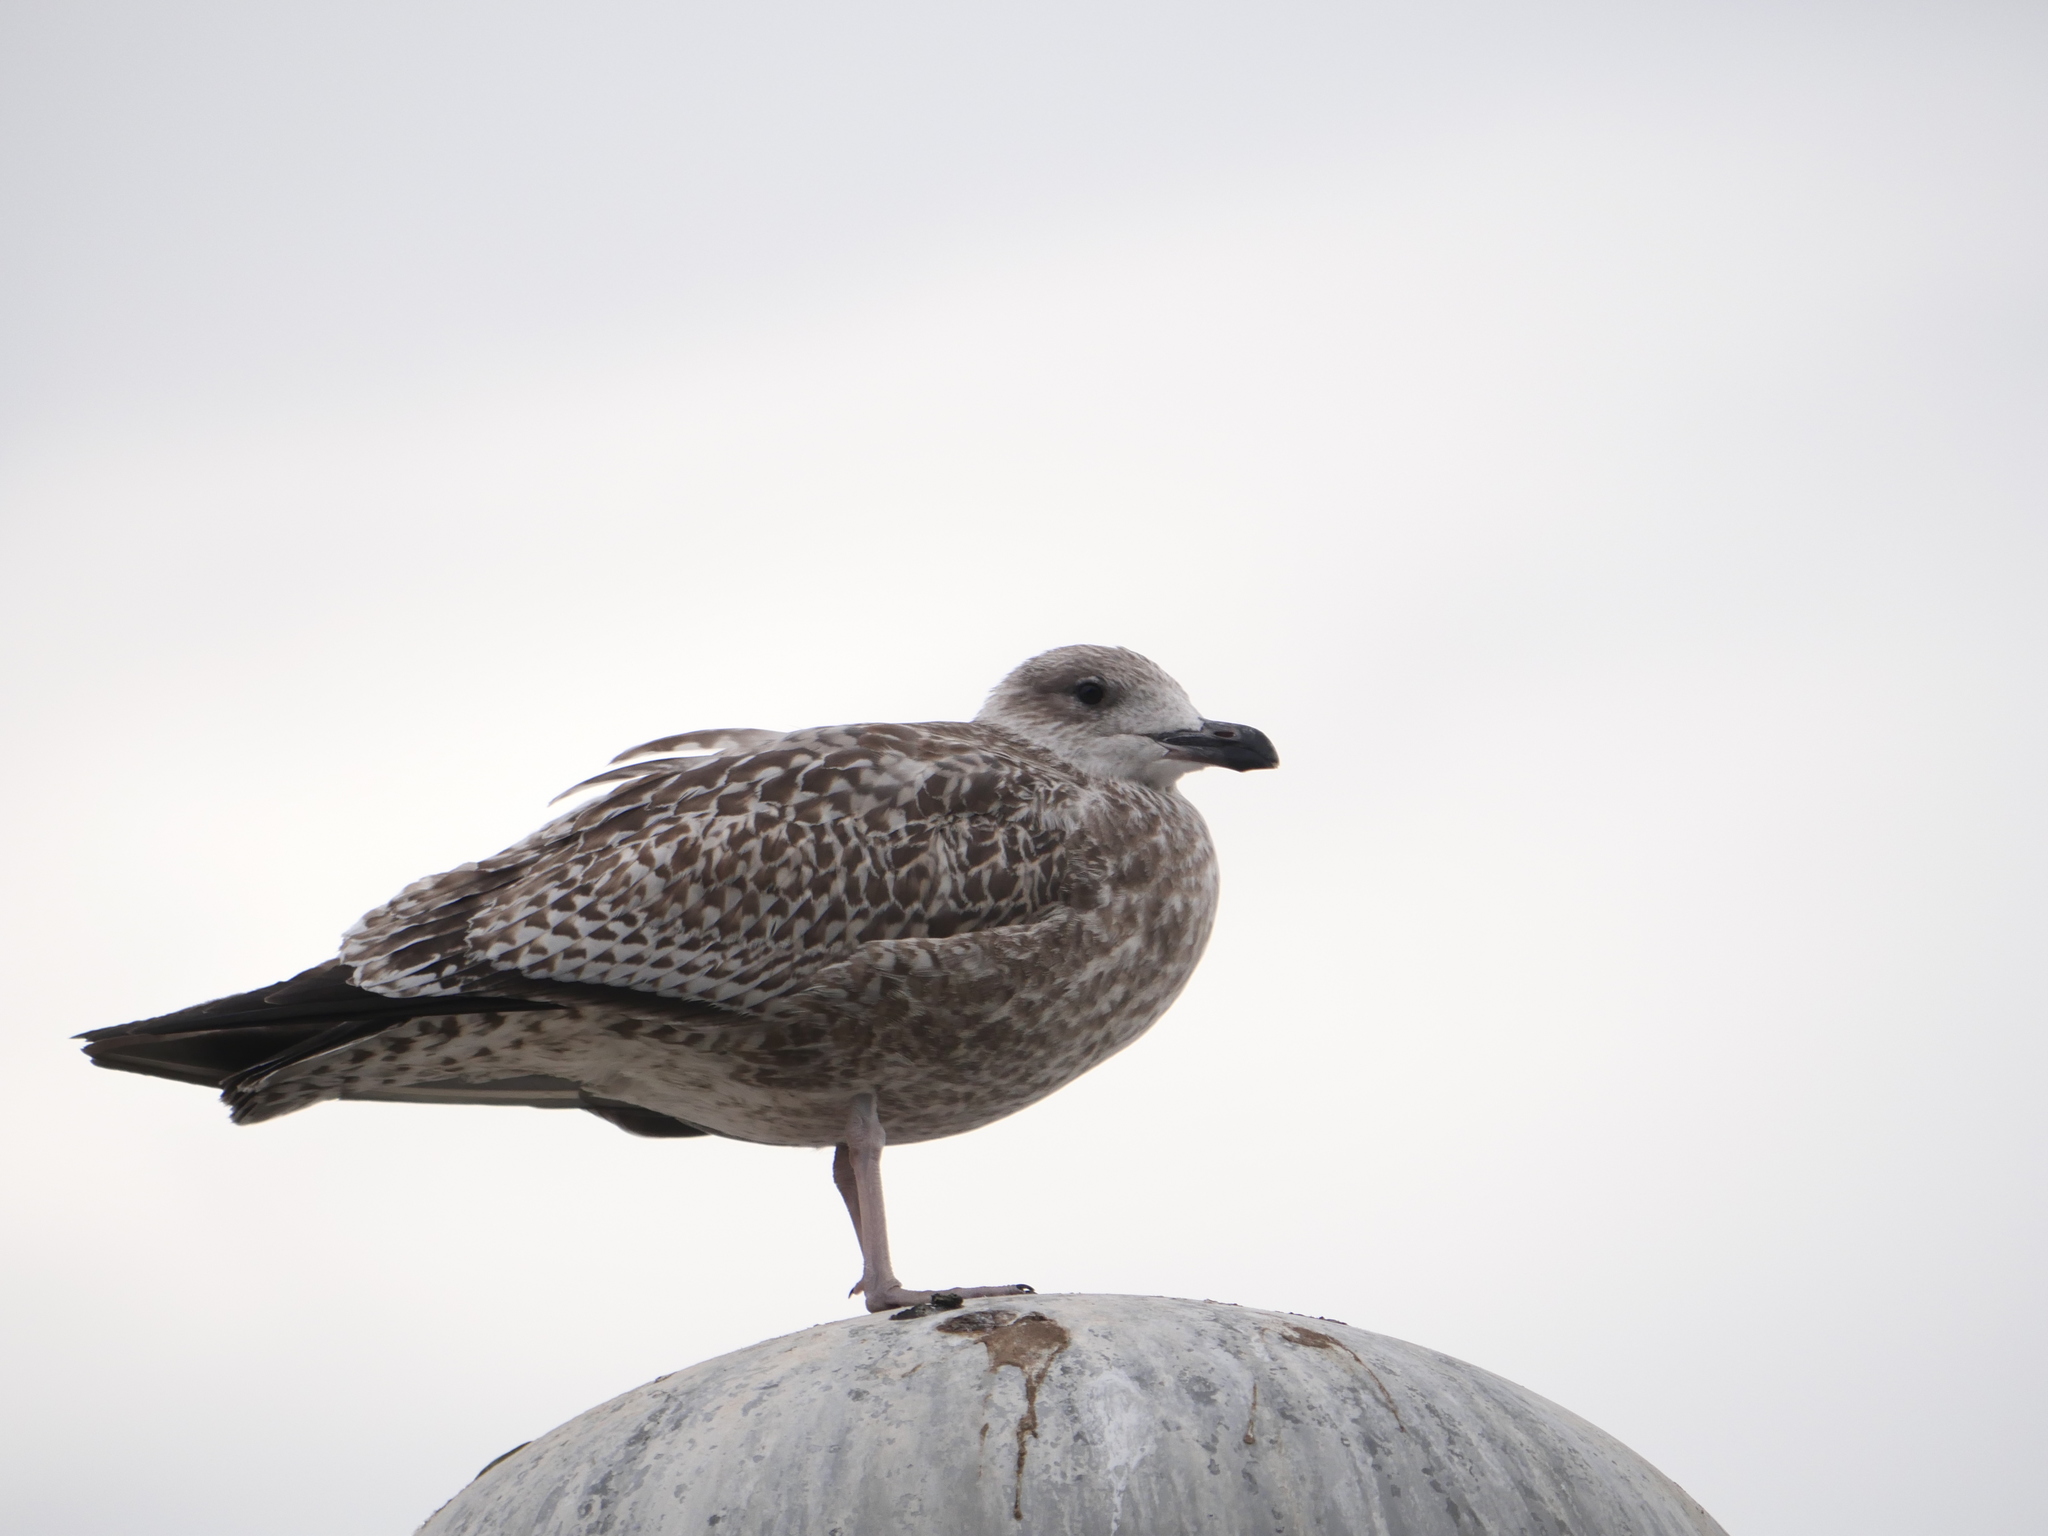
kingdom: Animalia
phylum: Chordata
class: Aves
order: Charadriiformes
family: Laridae
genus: Larus
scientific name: Larus argentatus
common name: Herring gull
